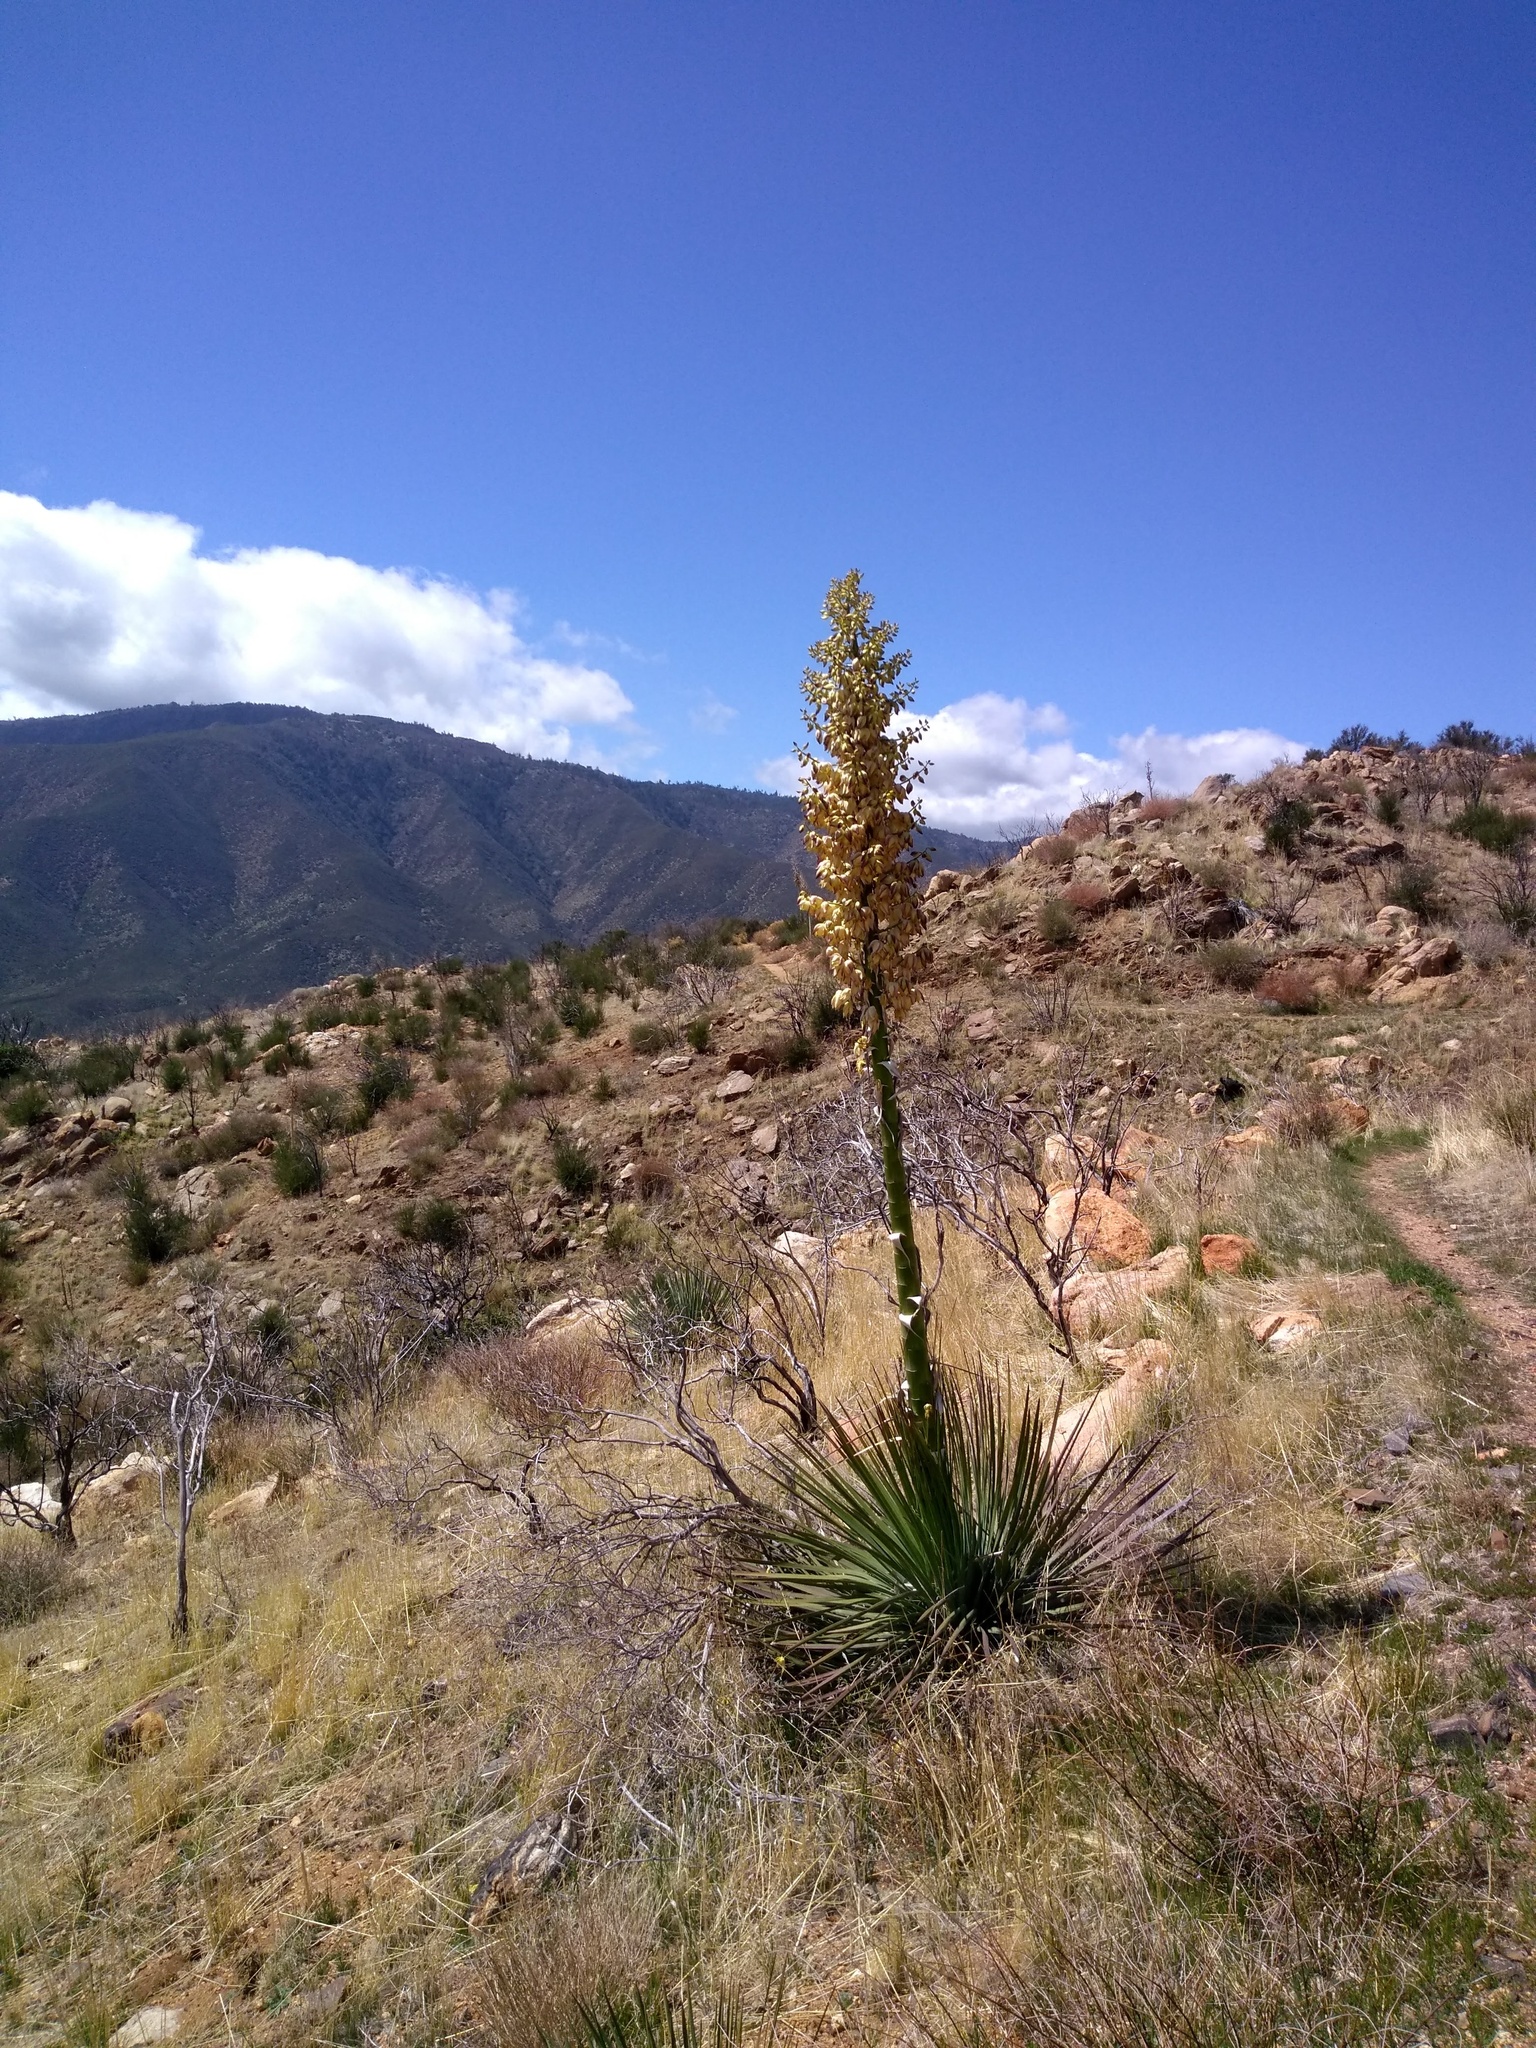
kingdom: Plantae
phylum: Tracheophyta
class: Liliopsida
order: Asparagales
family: Asparagaceae
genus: Hesperoyucca
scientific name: Hesperoyucca whipplei
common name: Our lord's-candle
